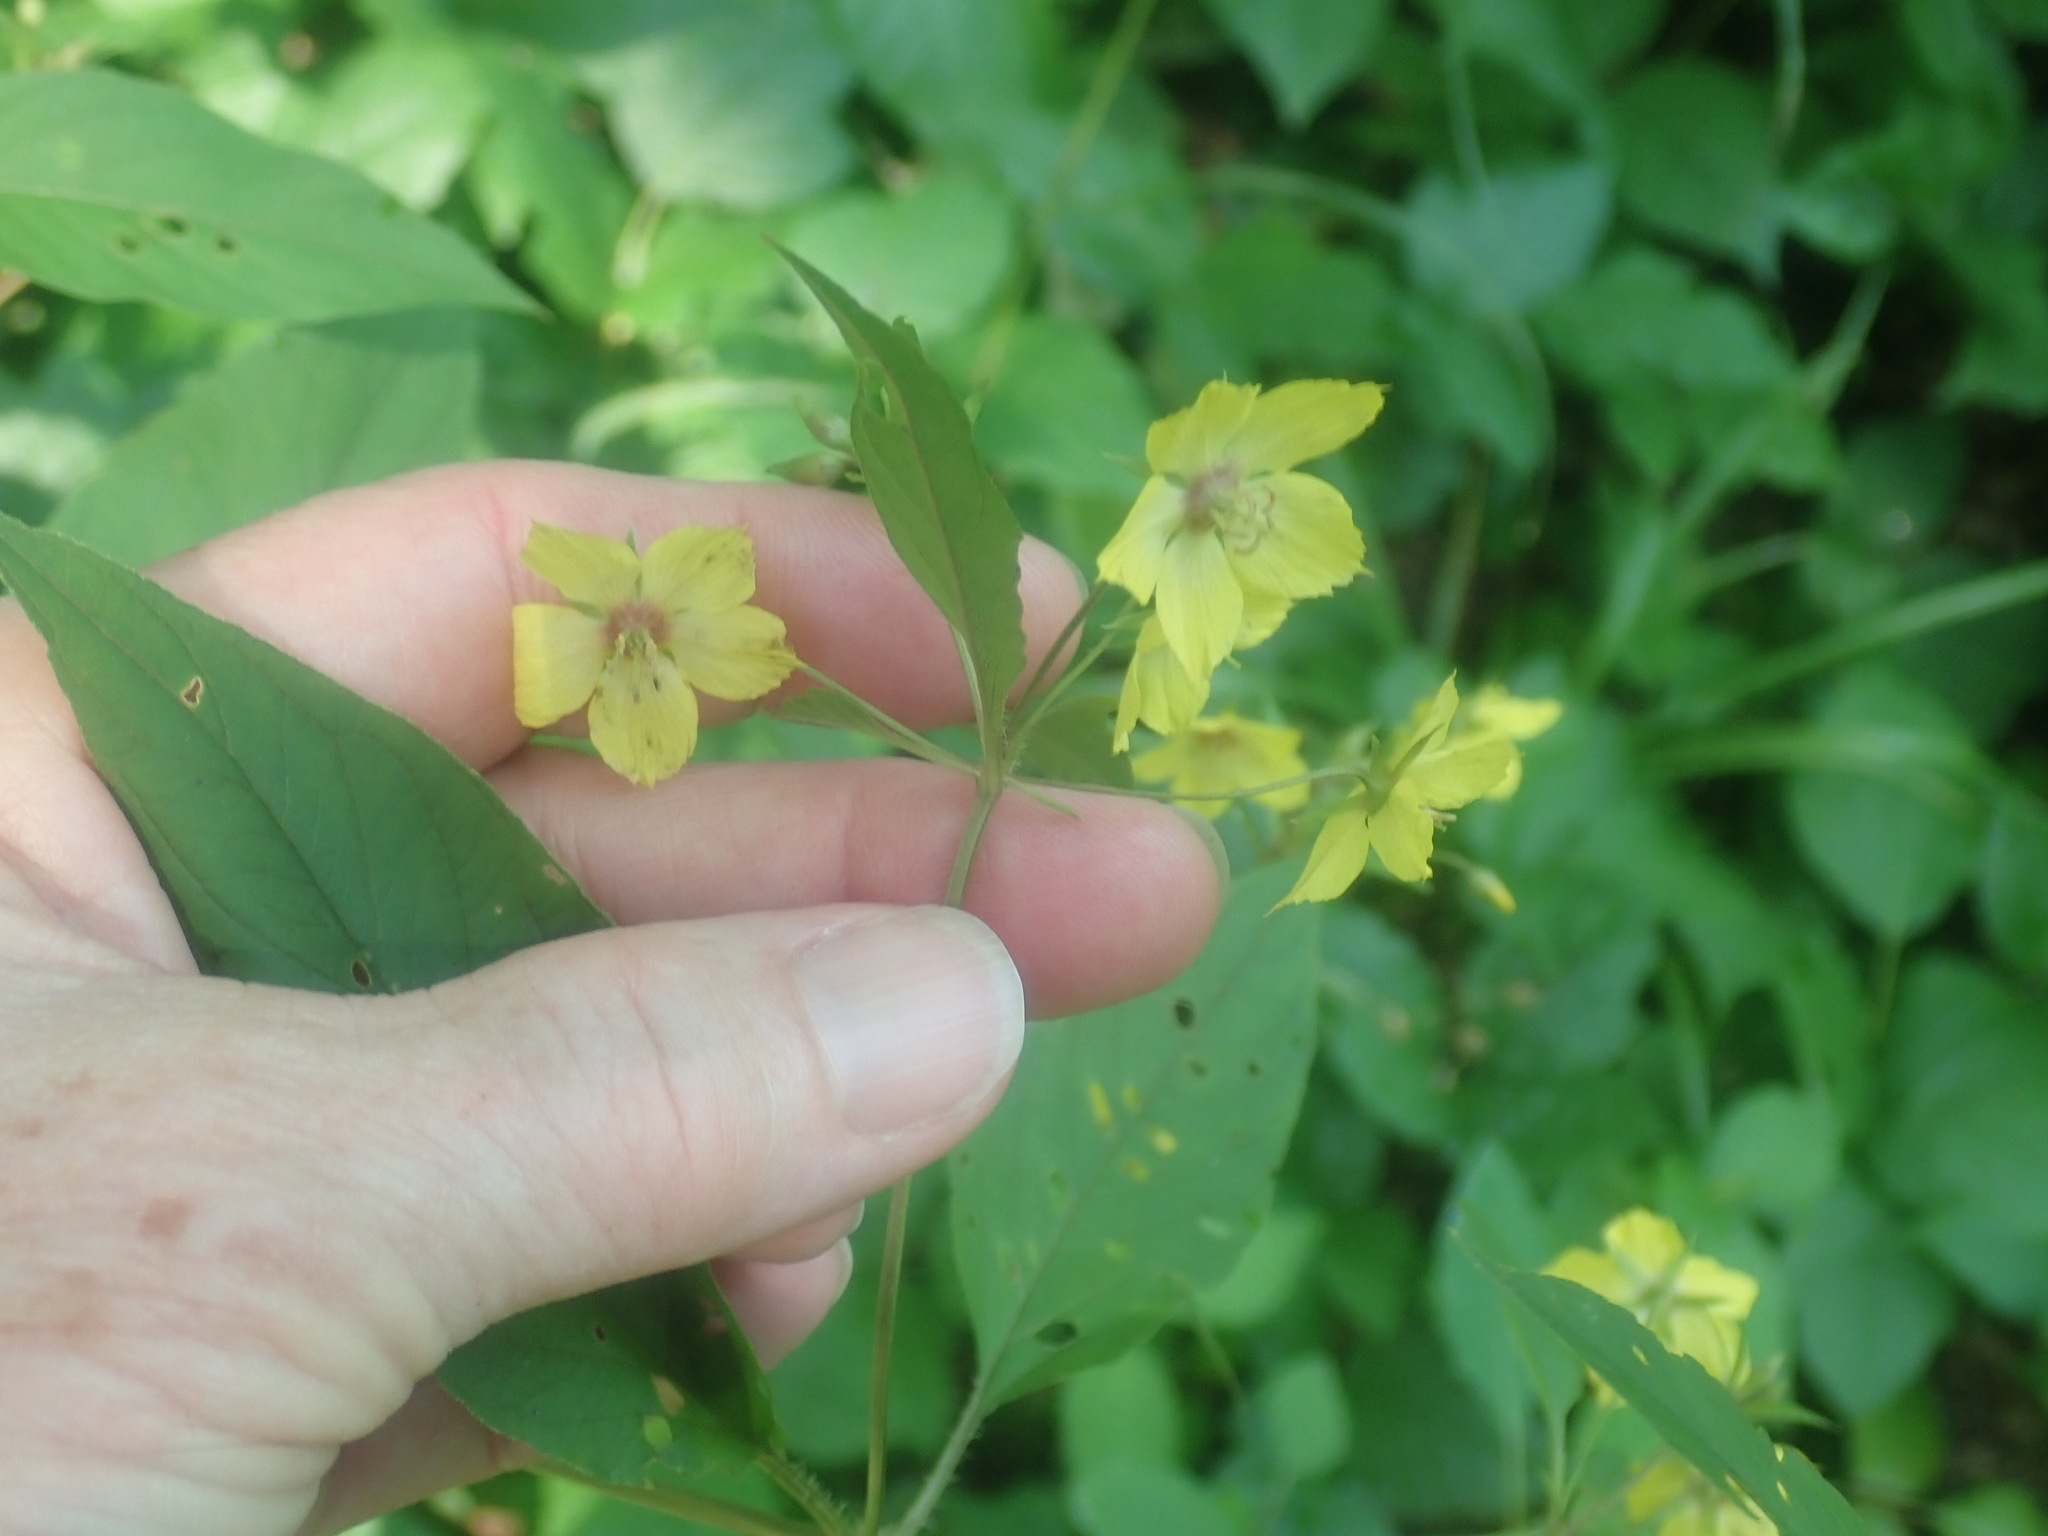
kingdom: Plantae
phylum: Tracheophyta
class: Magnoliopsida
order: Ericales
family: Primulaceae
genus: Lysimachia
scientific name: Lysimachia ciliata
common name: Fringed loosestrife
